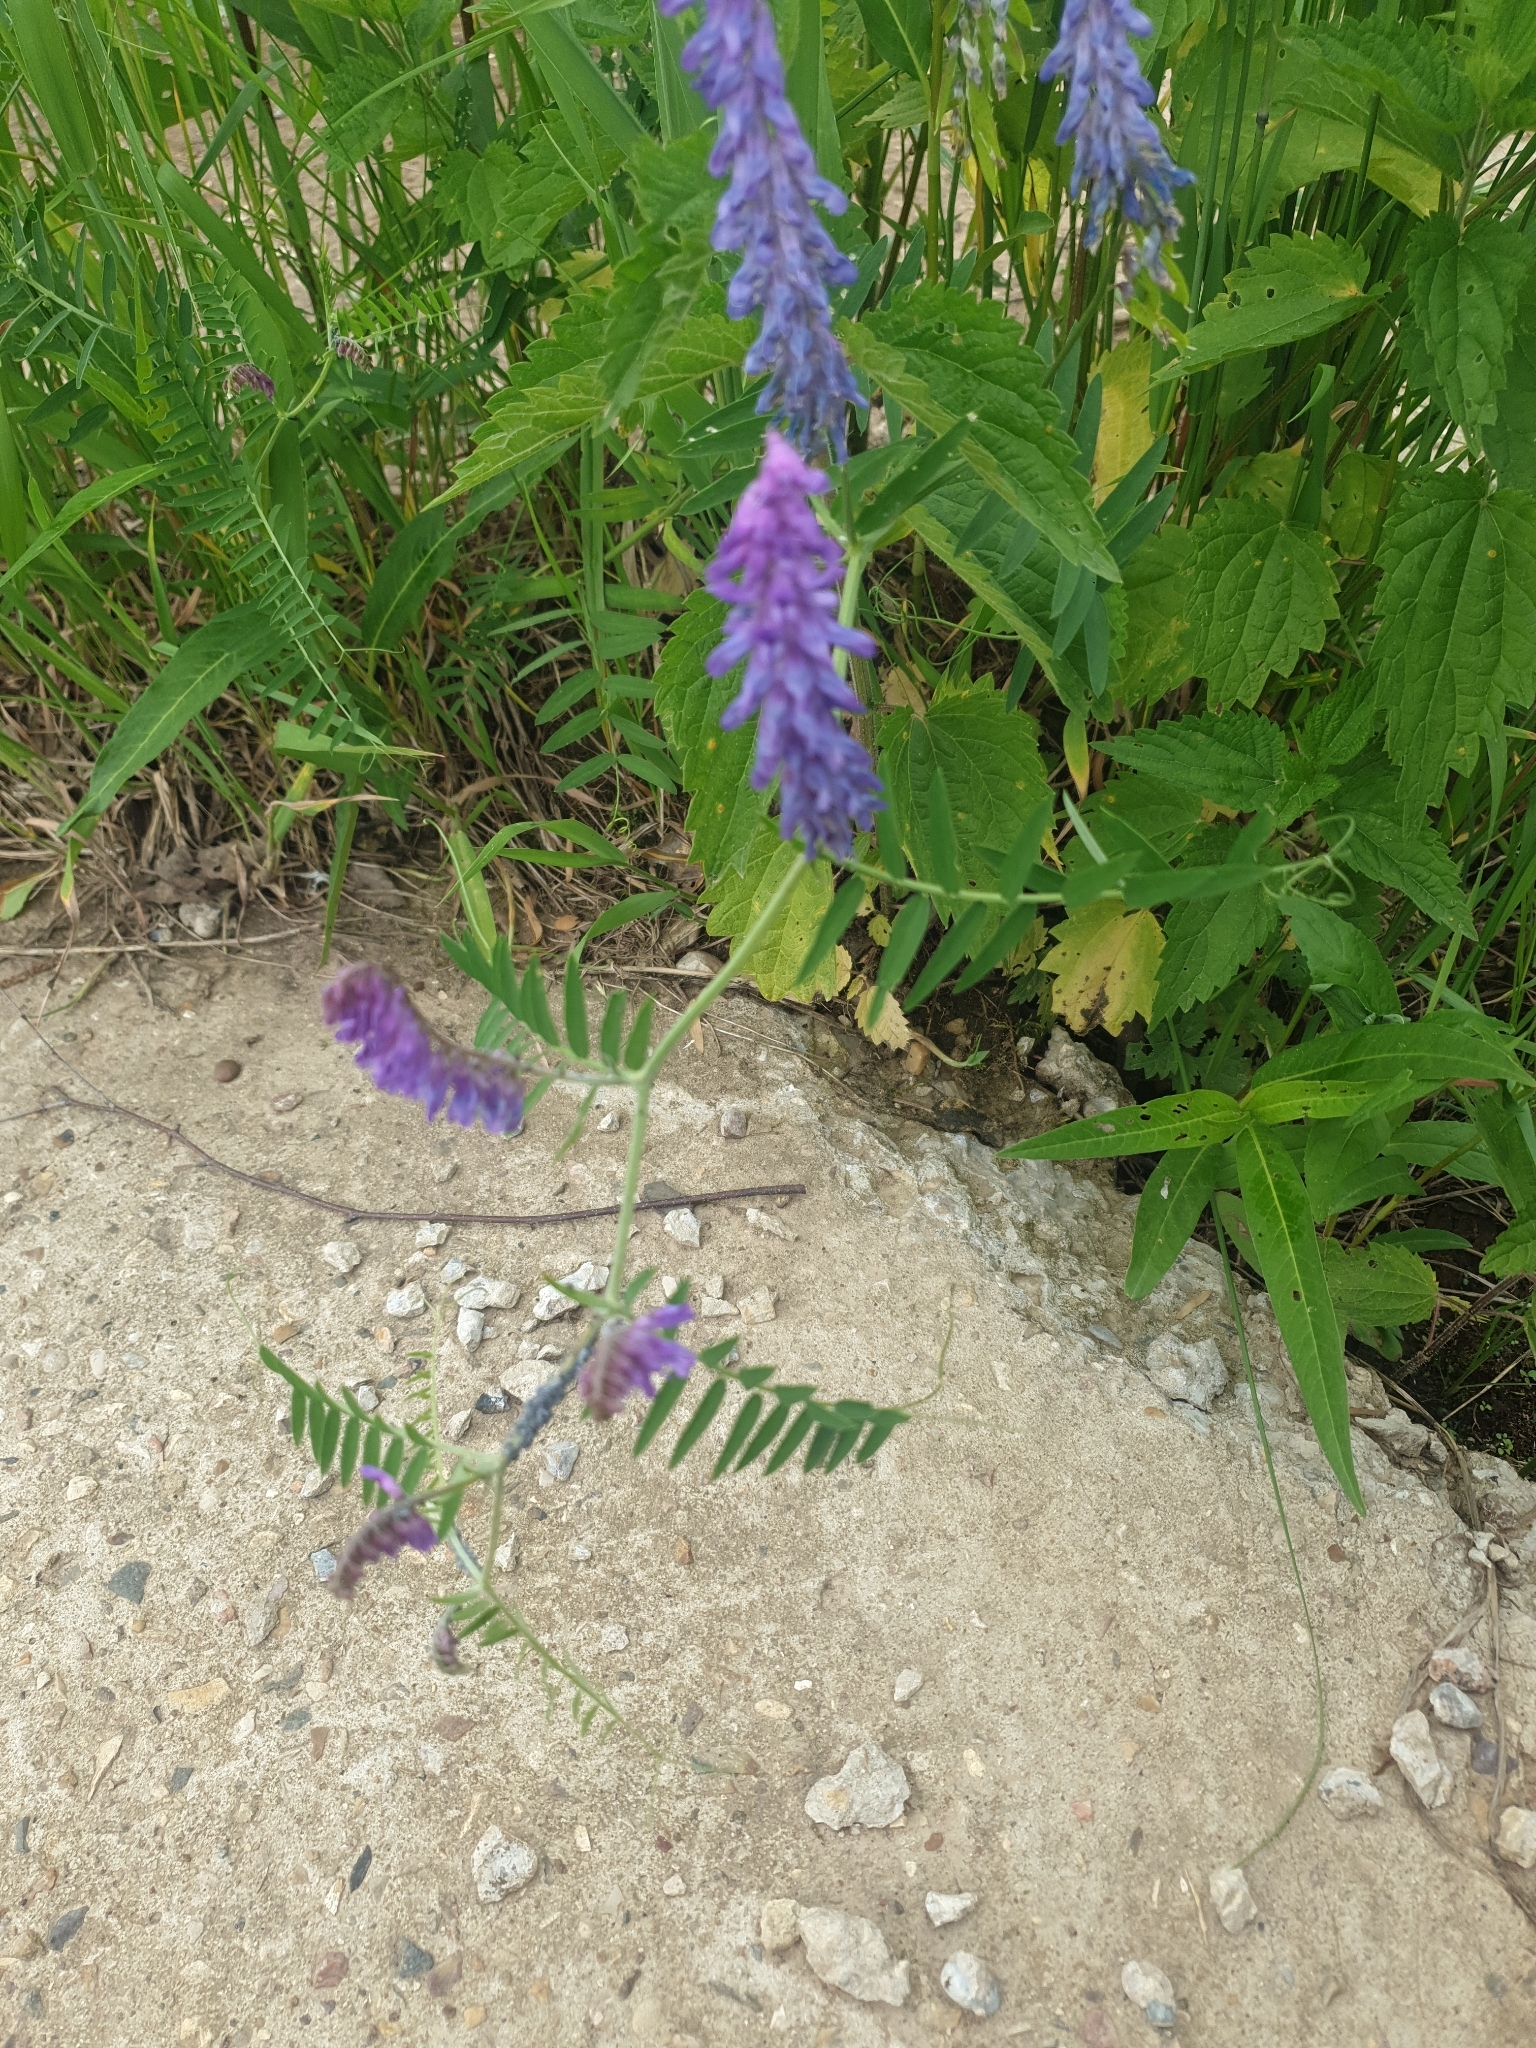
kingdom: Plantae
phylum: Tracheophyta
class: Magnoliopsida
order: Fabales
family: Fabaceae
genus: Vicia
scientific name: Vicia cracca
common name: Bird vetch
